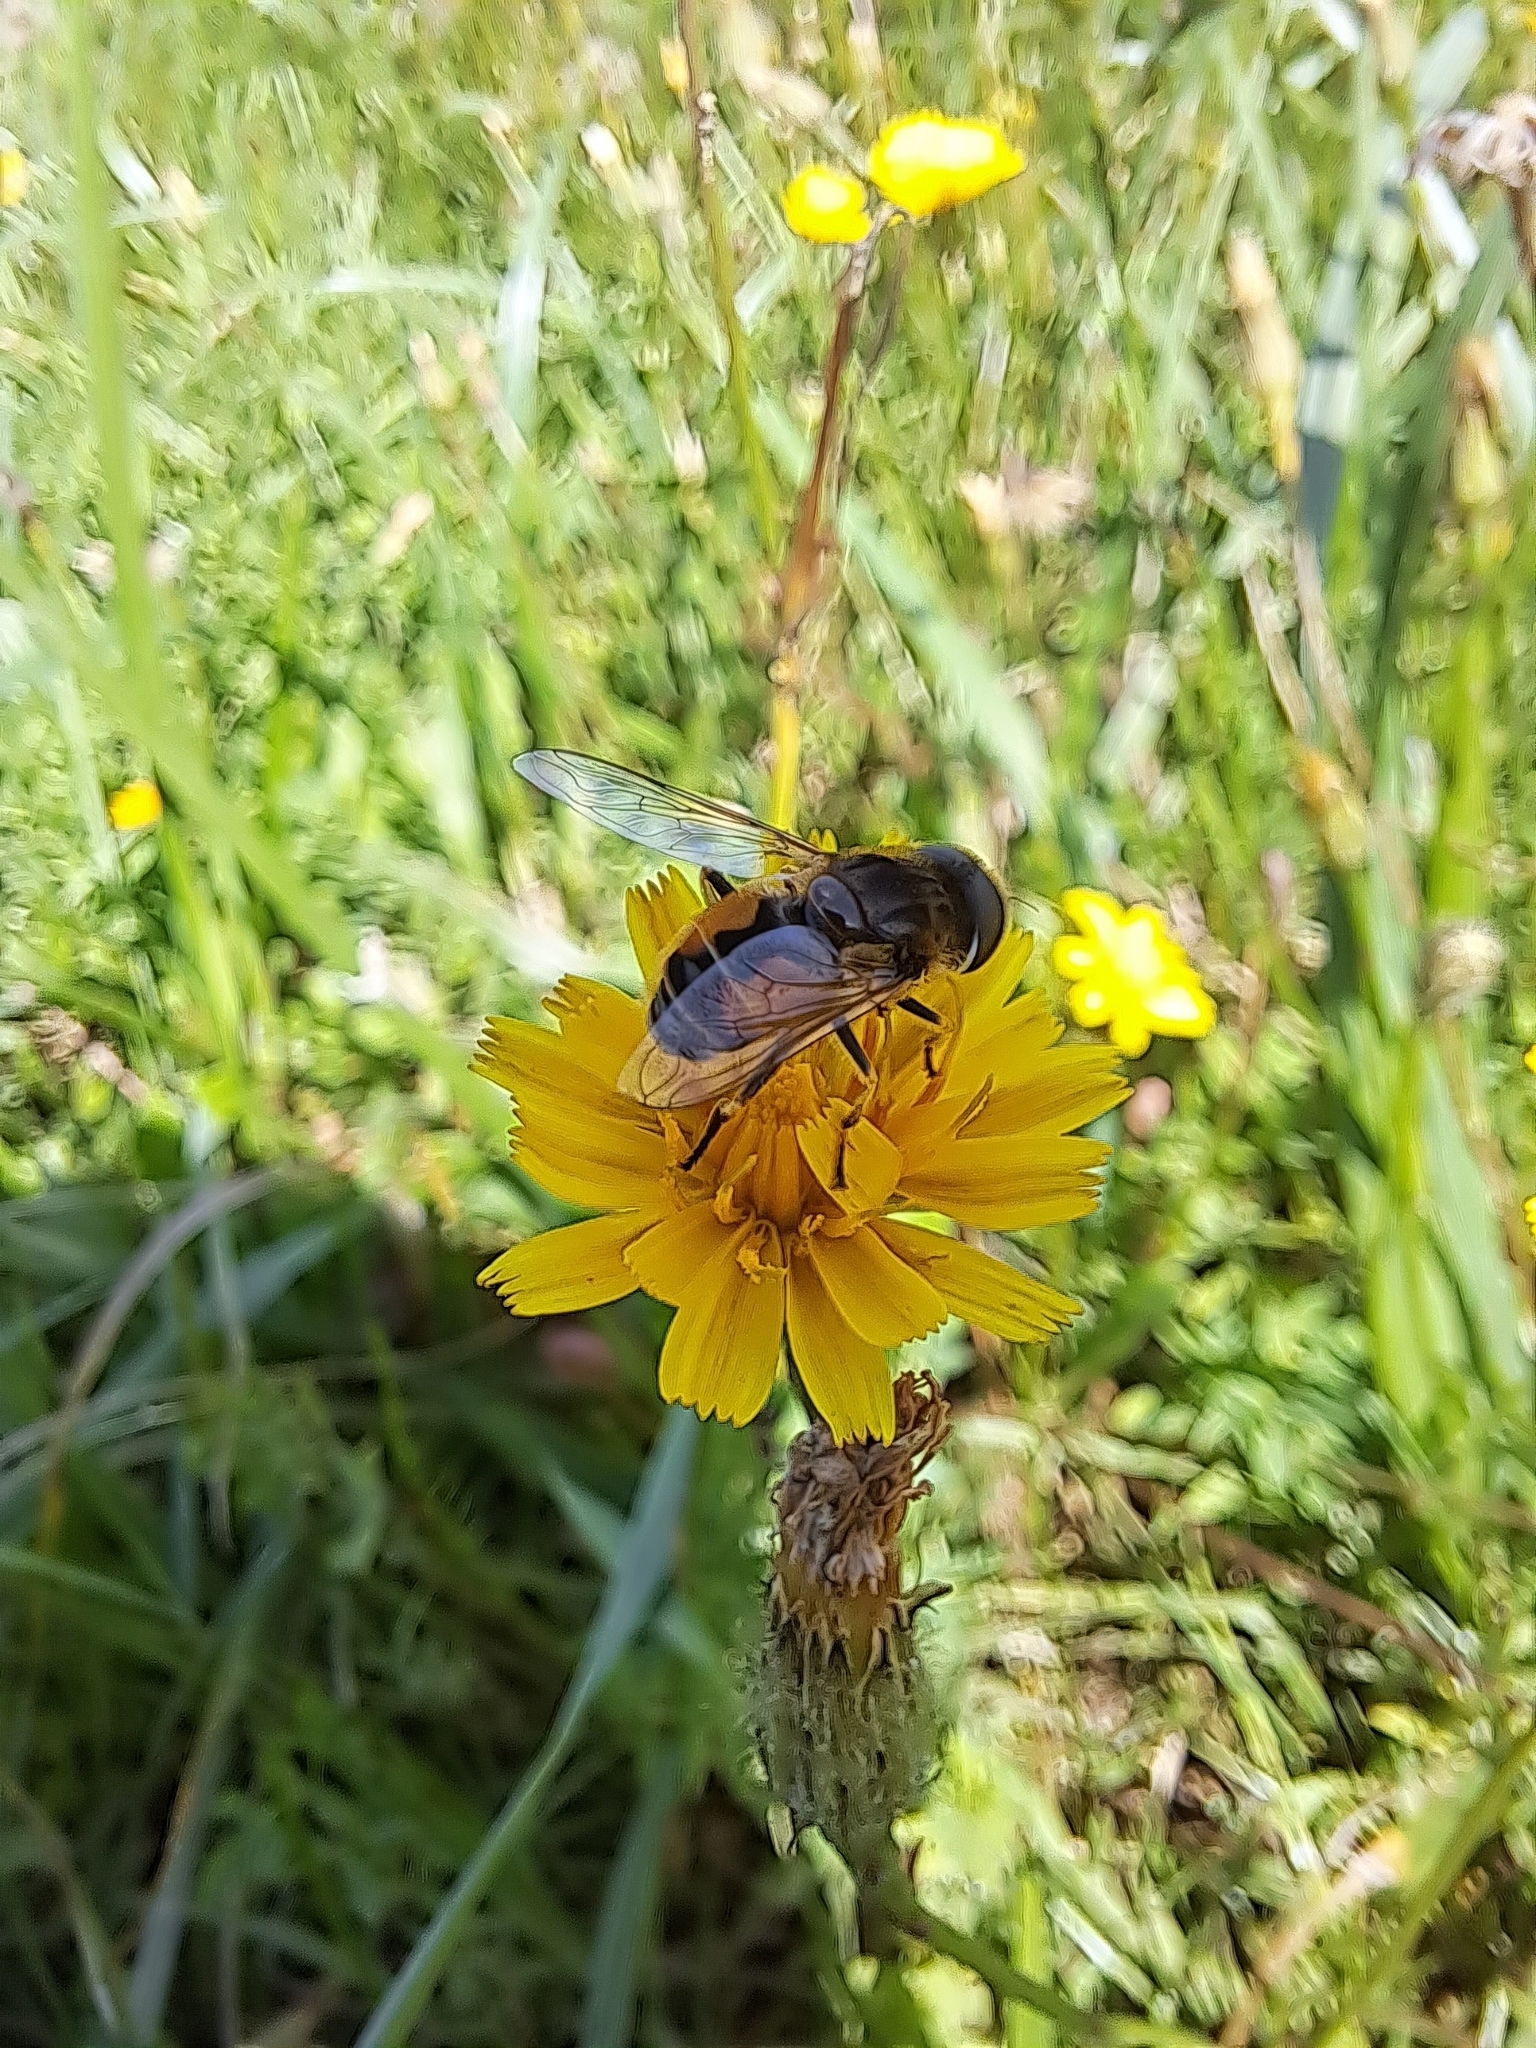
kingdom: Animalia
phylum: Arthropoda
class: Insecta
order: Diptera
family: Syrphidae
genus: Eristalis
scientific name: Eristalis arbustorum
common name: Hover fly
